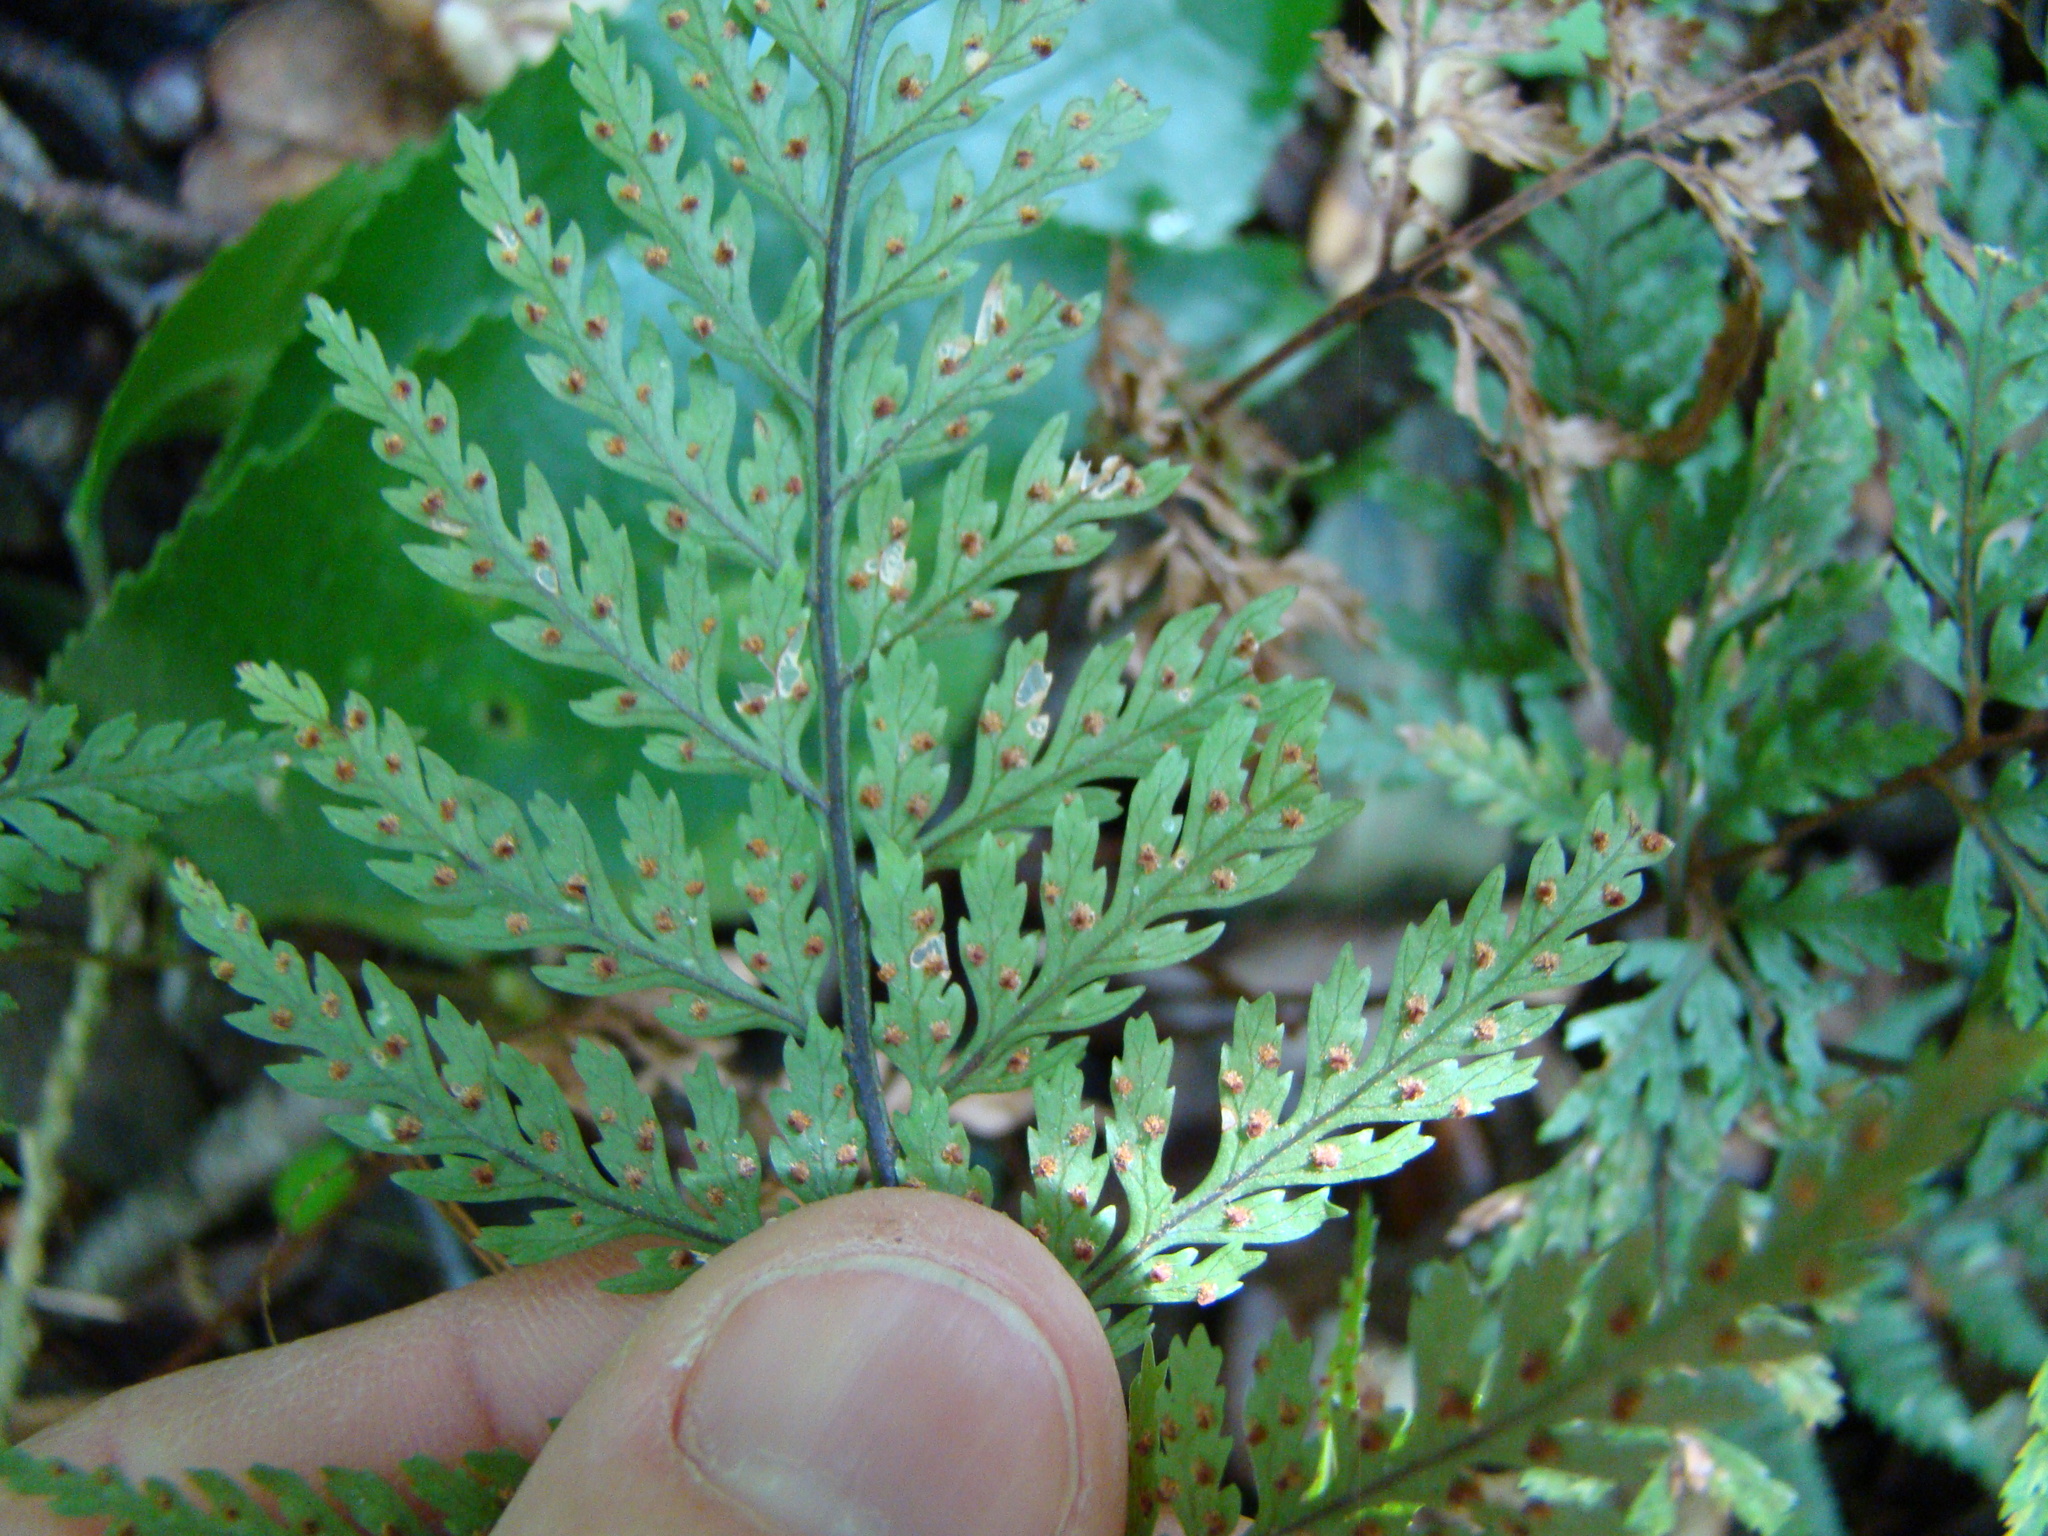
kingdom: Plantae
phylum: Tracheophyta
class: Polypodiopsida
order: Polypodiales
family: Dryopteridaceae
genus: Parapolystichum
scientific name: Parapolystichum glabellum
